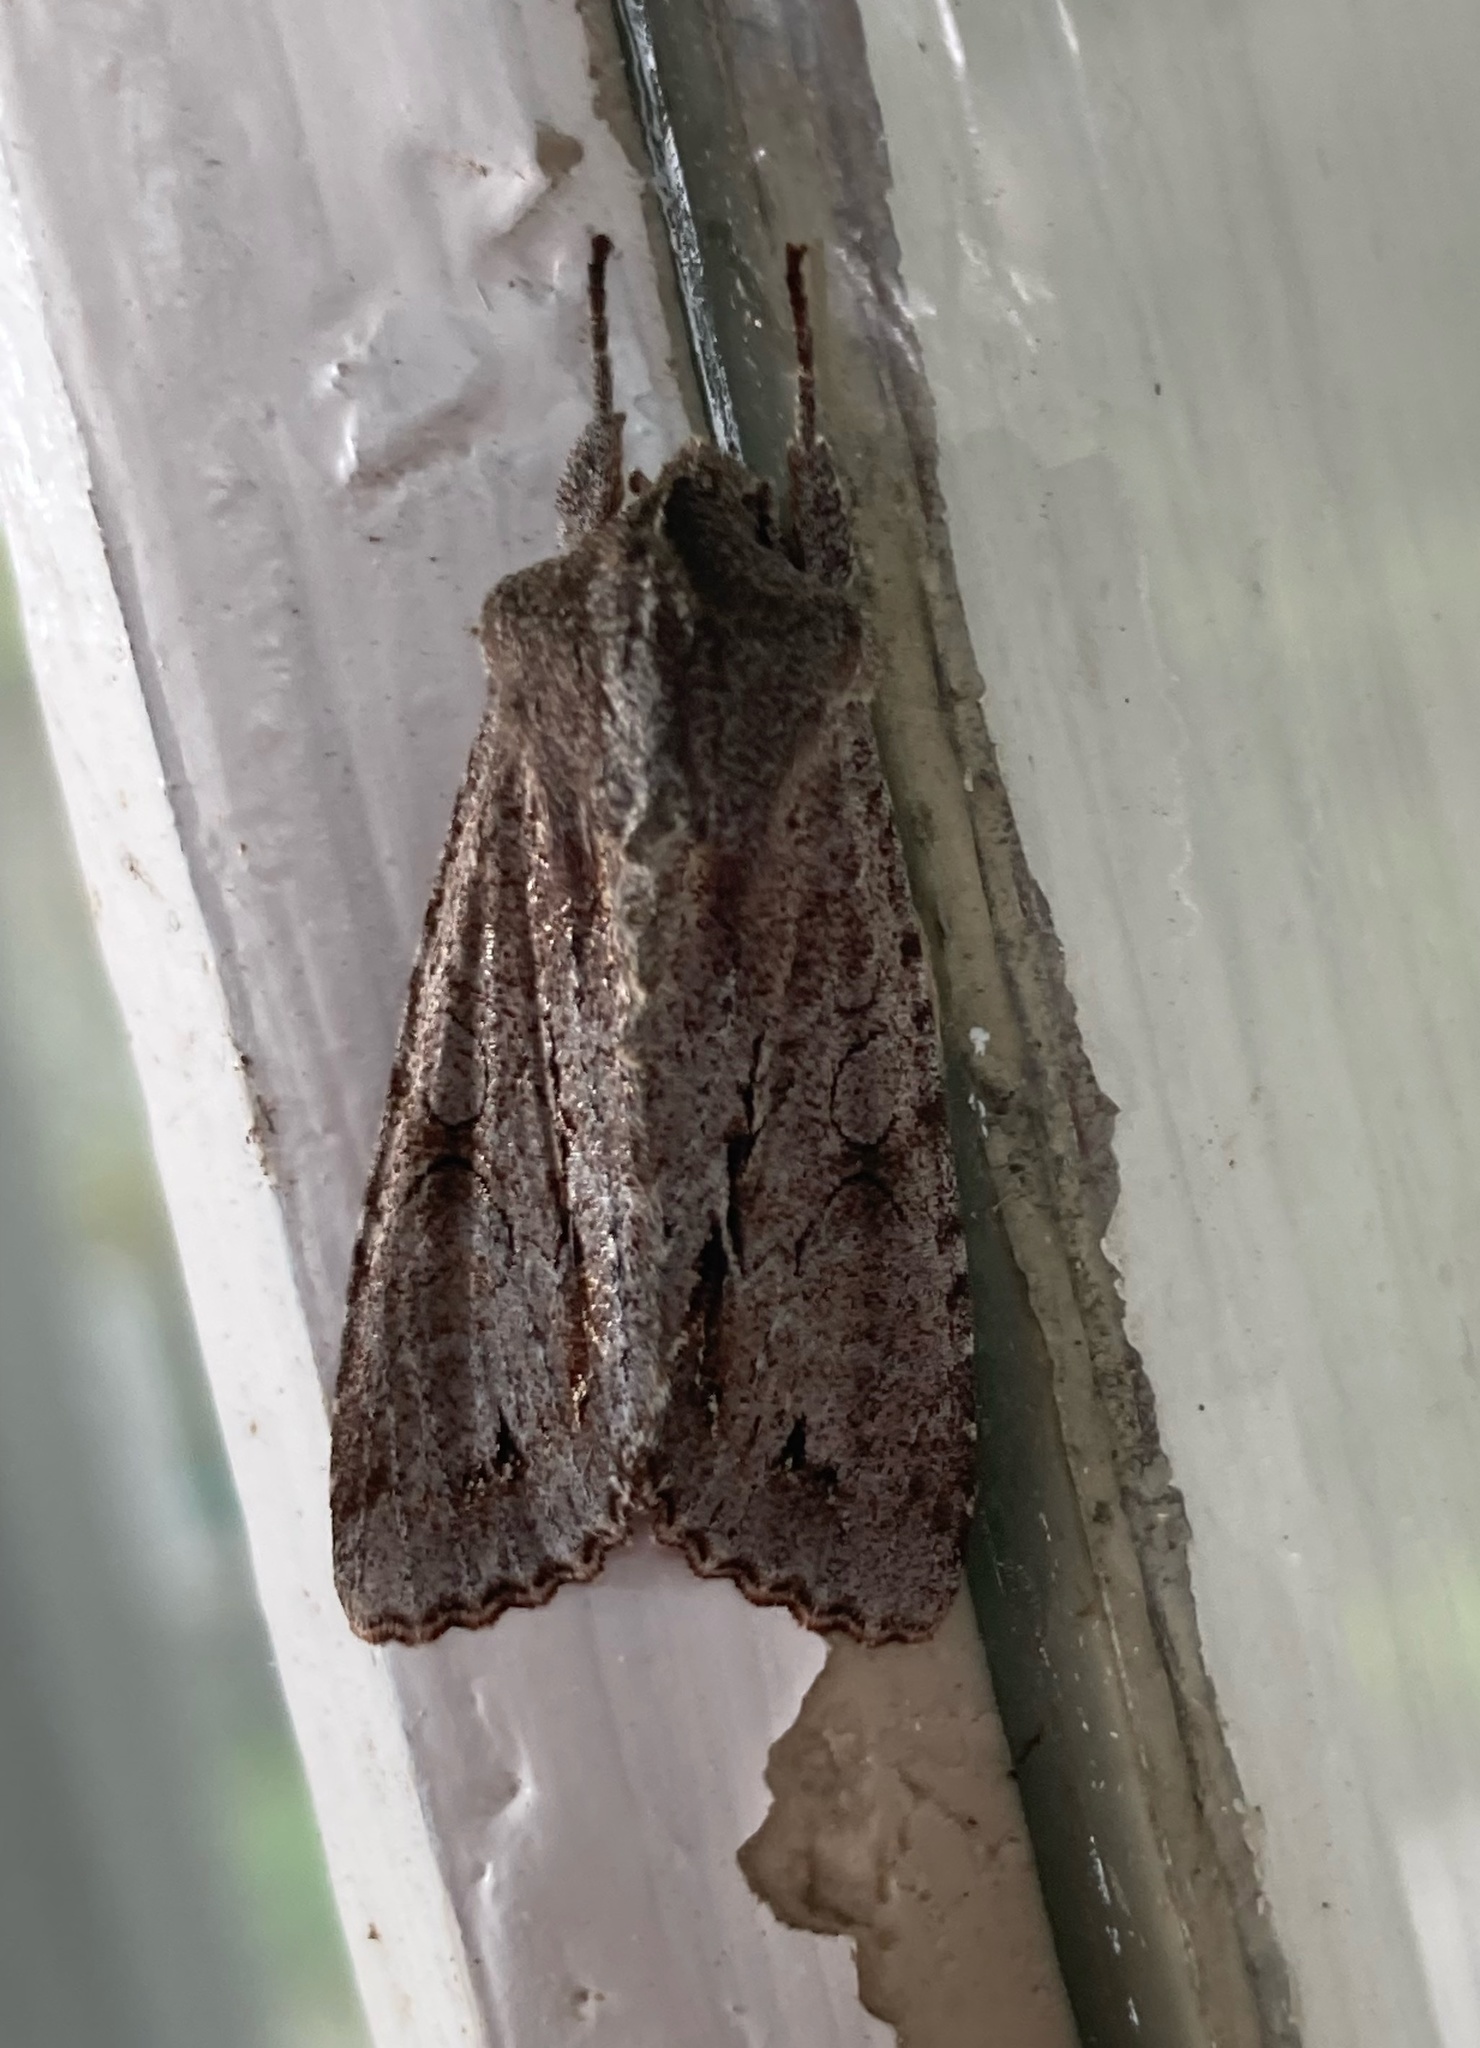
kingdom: Animalia
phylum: Arthropoda
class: Insecta
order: Lepidoptera
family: Noctuidae
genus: Ichneutica
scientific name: Ichneutica
